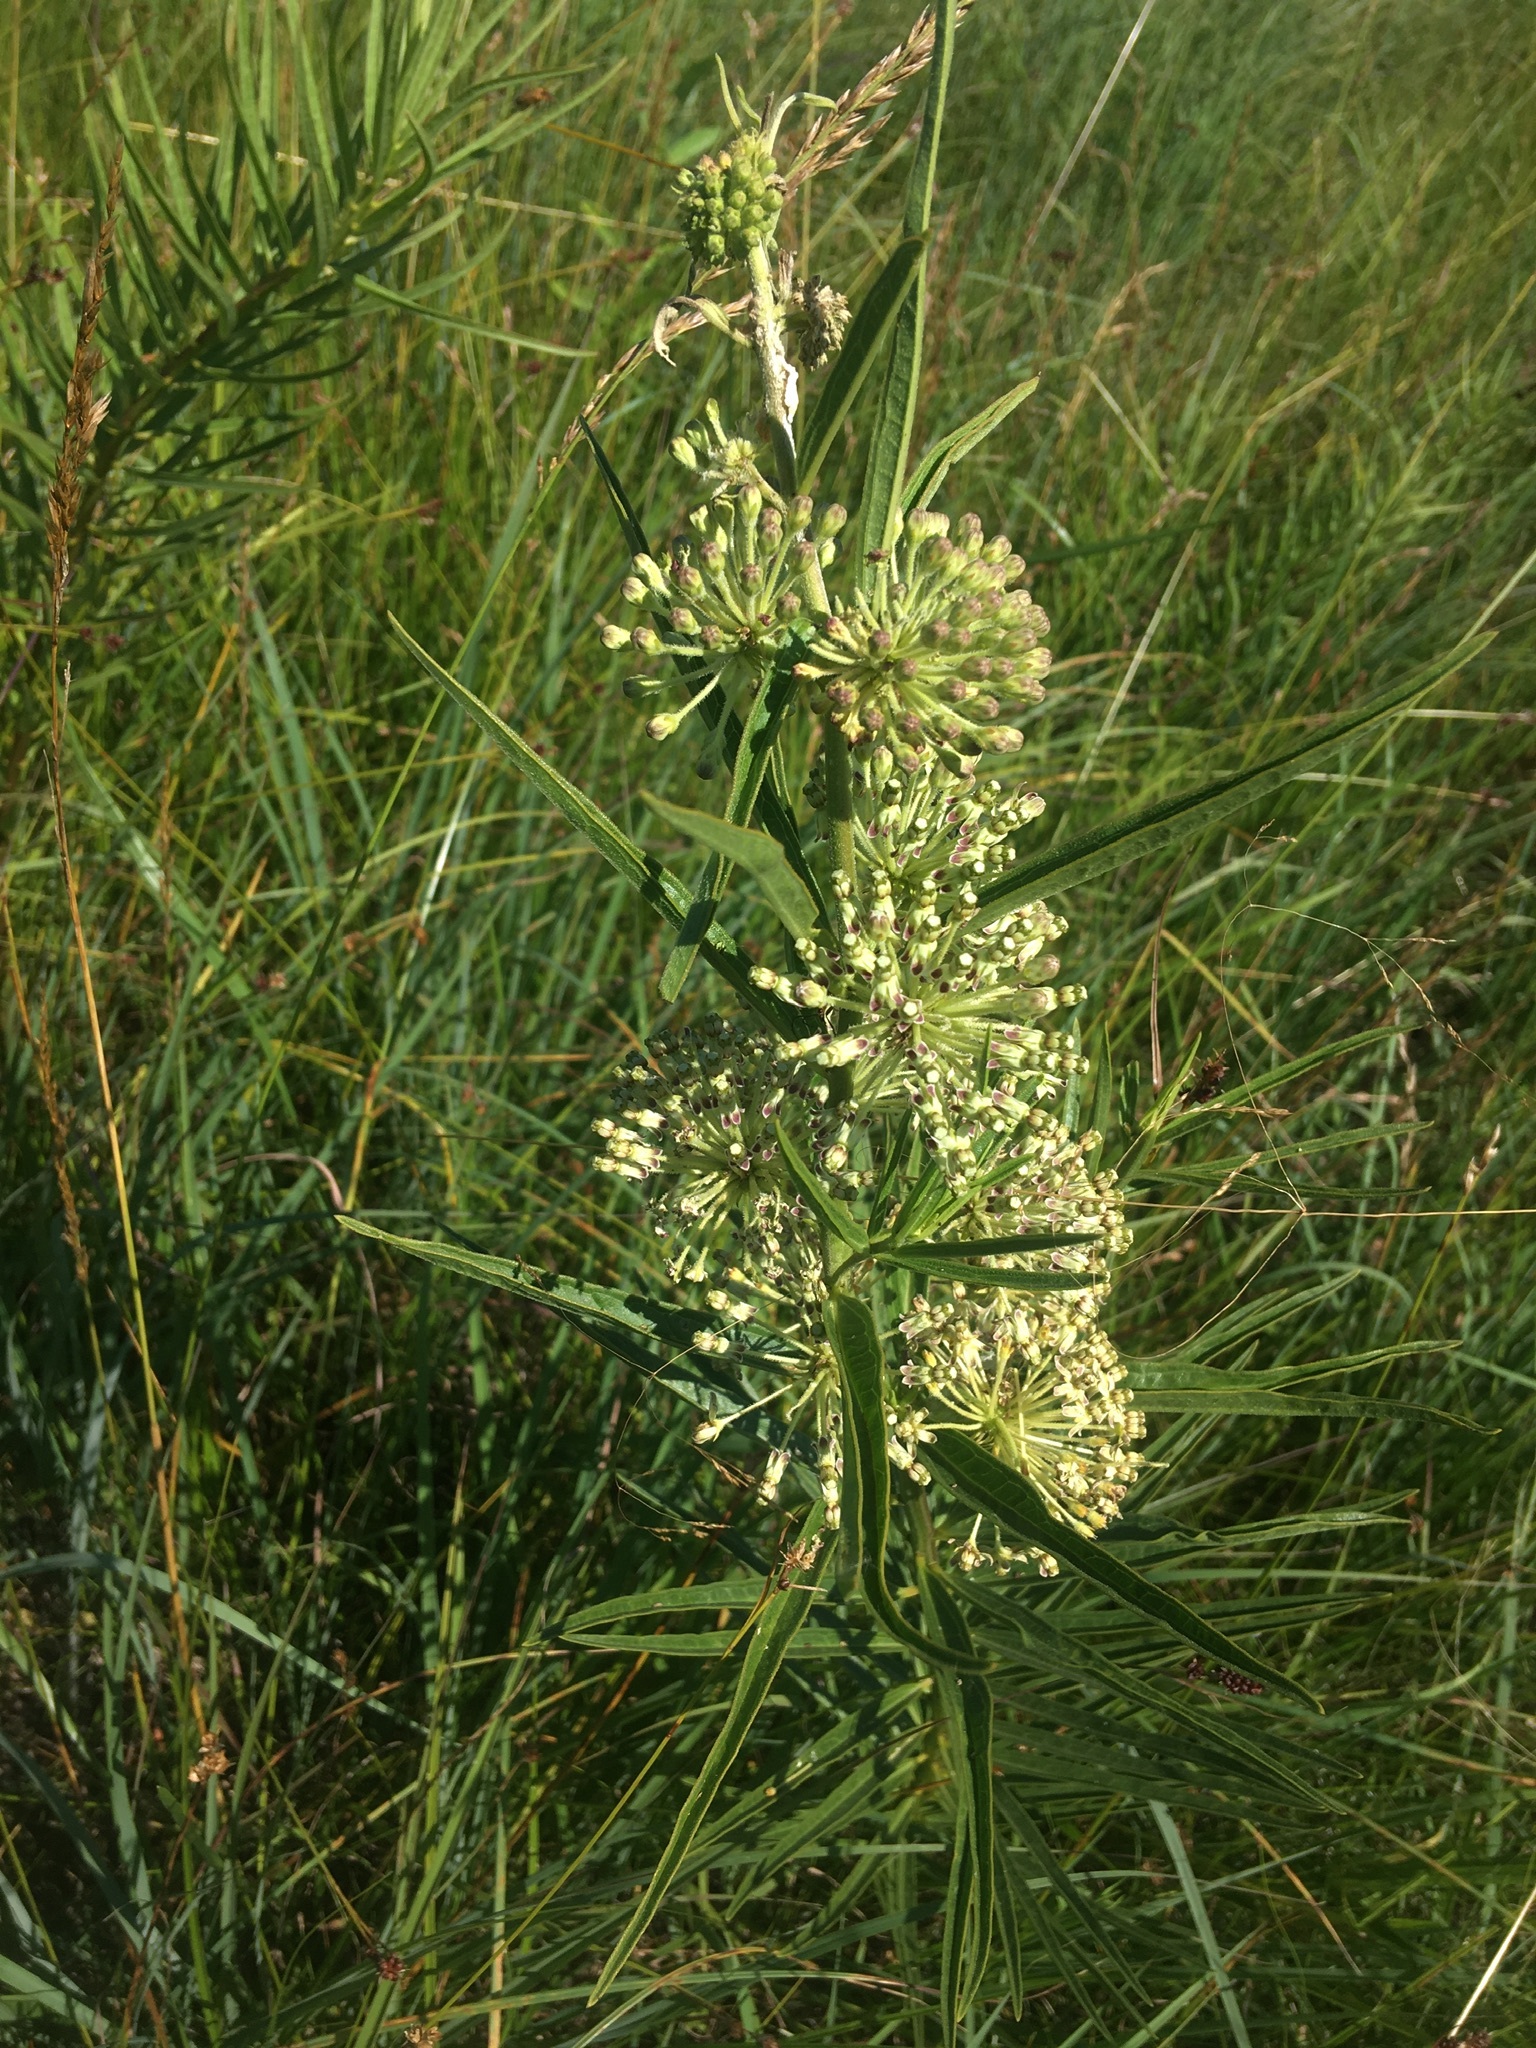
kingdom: Plantae
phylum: Tracheophyta
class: Magnoliopsida
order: Gentianales
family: Apocynaceae
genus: Asclepias
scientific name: Asclepias hirtella
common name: Prairie milkweed
